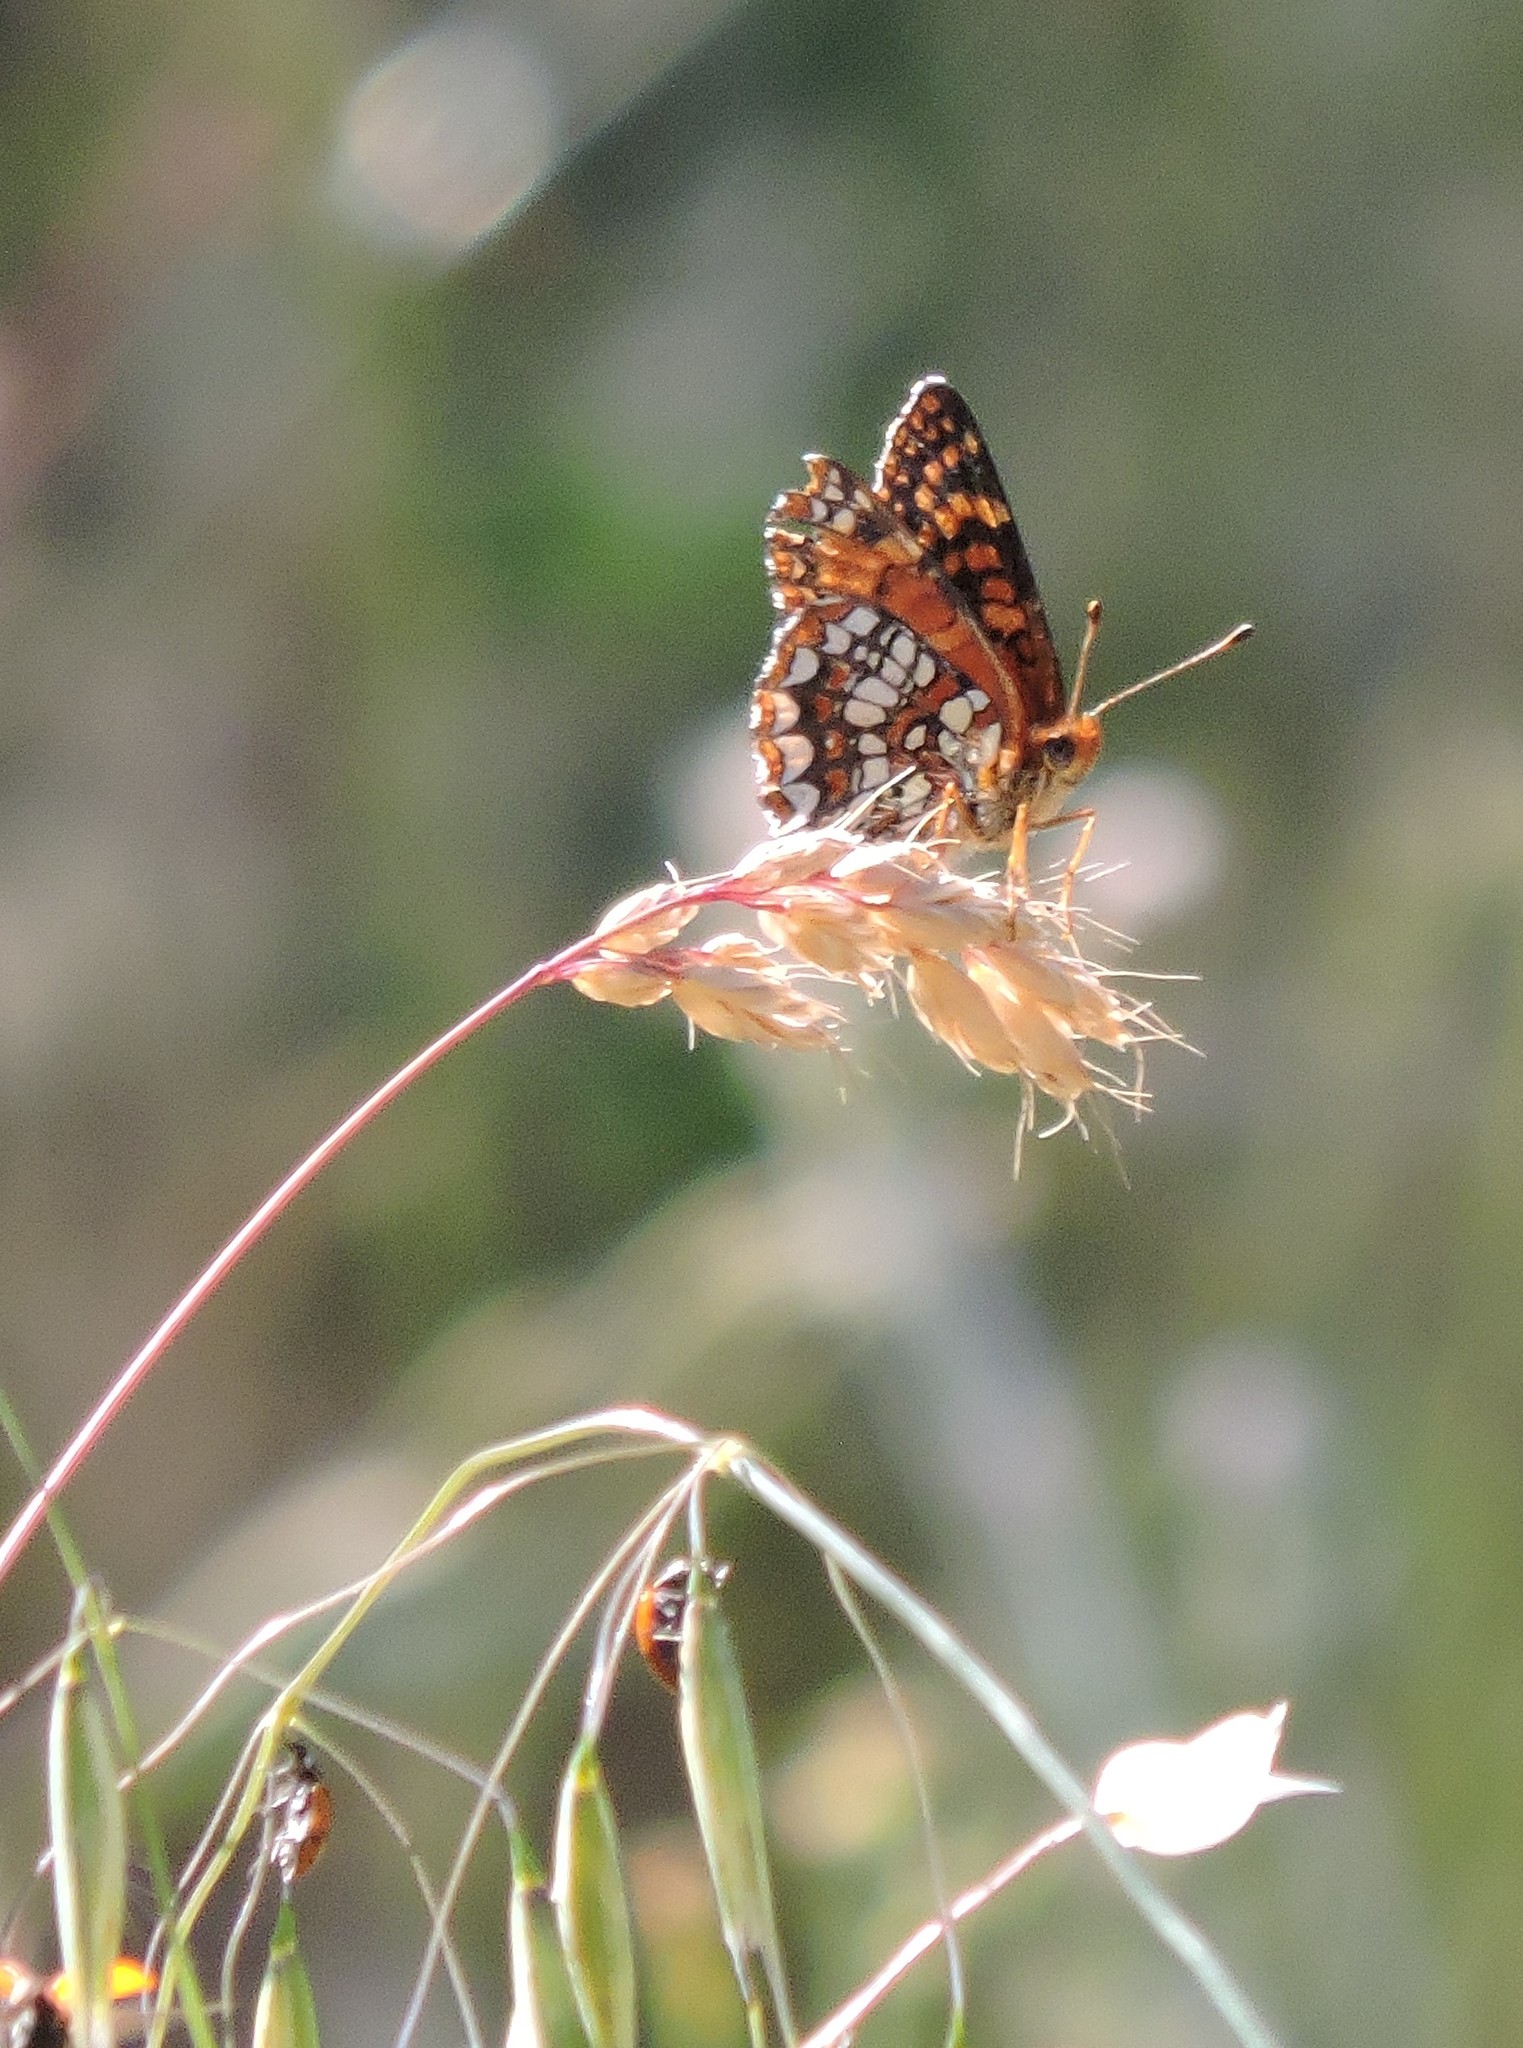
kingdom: Animalia
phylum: Arthropoda
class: Insecta
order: Lepidoptera
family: Nymphalidae
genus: Chlosyne
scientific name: Chlosyne palla
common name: Northern checkerspot
